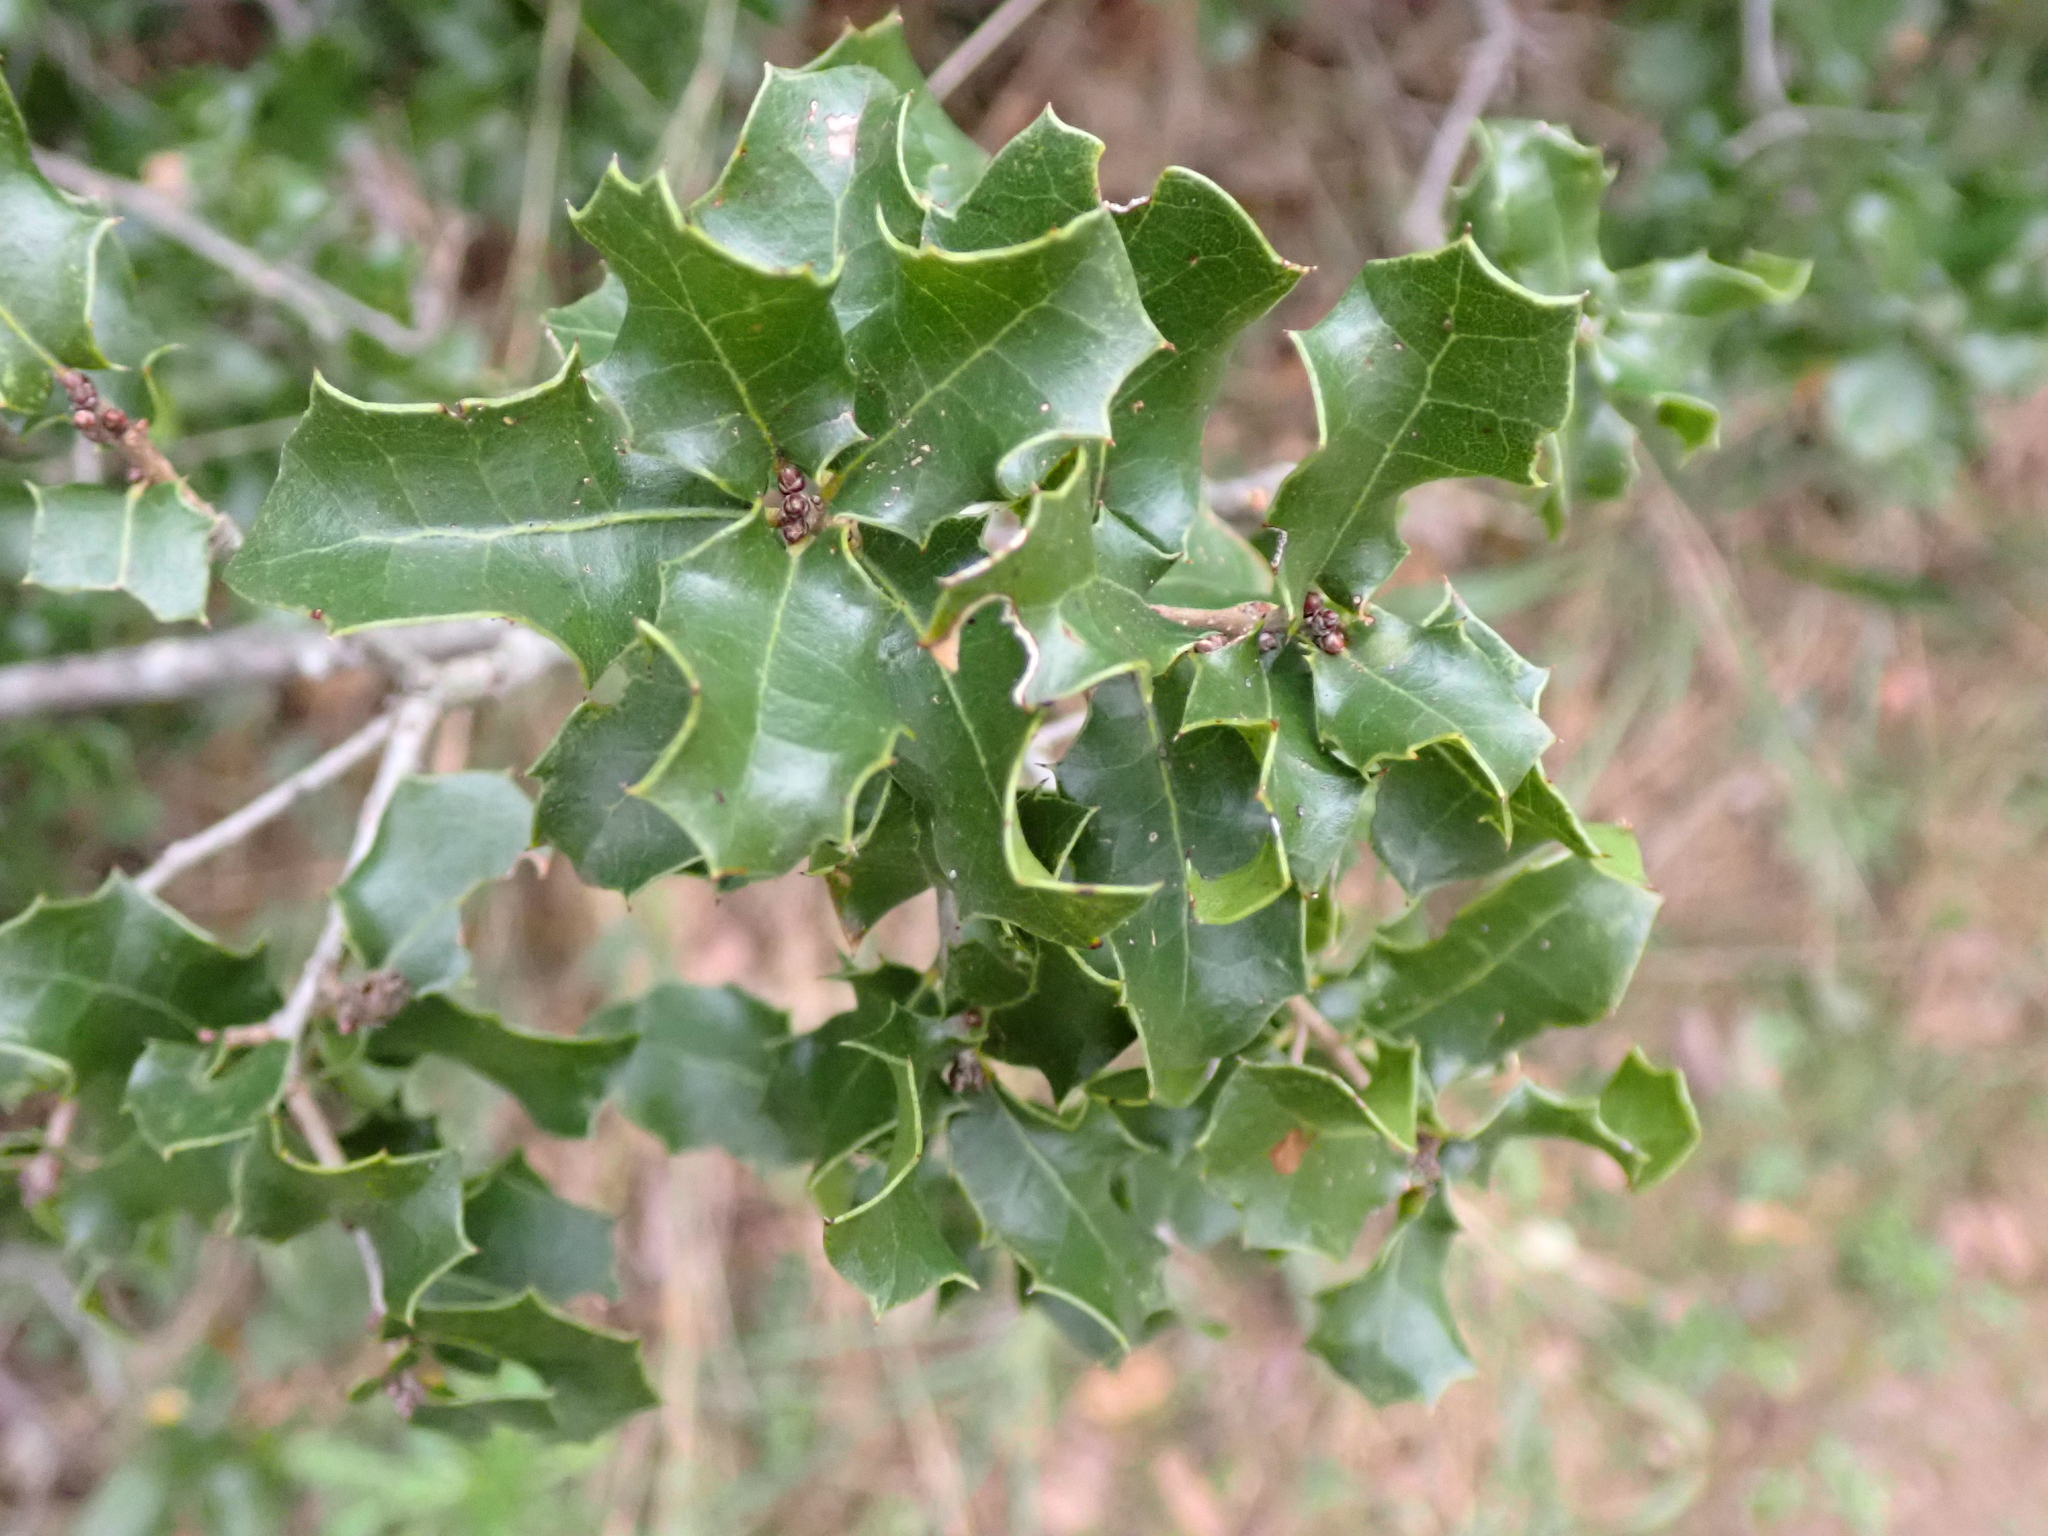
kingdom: Plantae
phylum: Tracheophyta
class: Magnoliopsida
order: Fagales
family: Fagaceae
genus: Quercus
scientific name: Quercus coccifera
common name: Kermes oak
